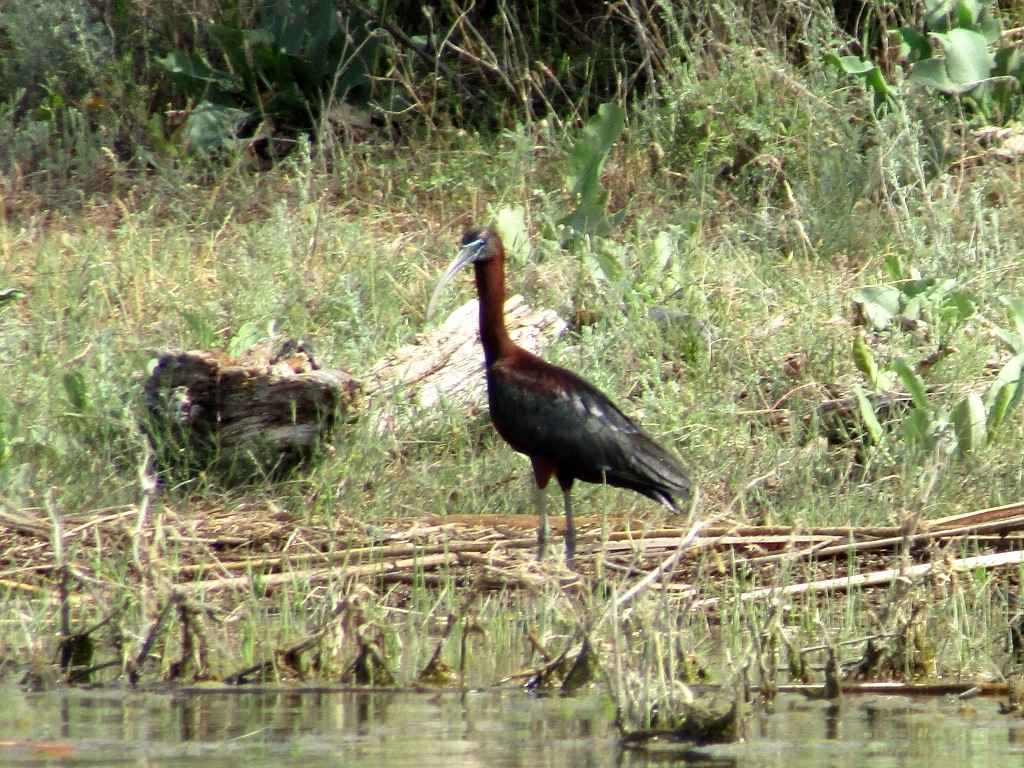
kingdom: Animalia
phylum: Chordata
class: Aves
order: Pelecaniformes
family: Threskiornithidae
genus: Plegadis
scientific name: Plegadis falcinellus
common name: Glossy ibis
